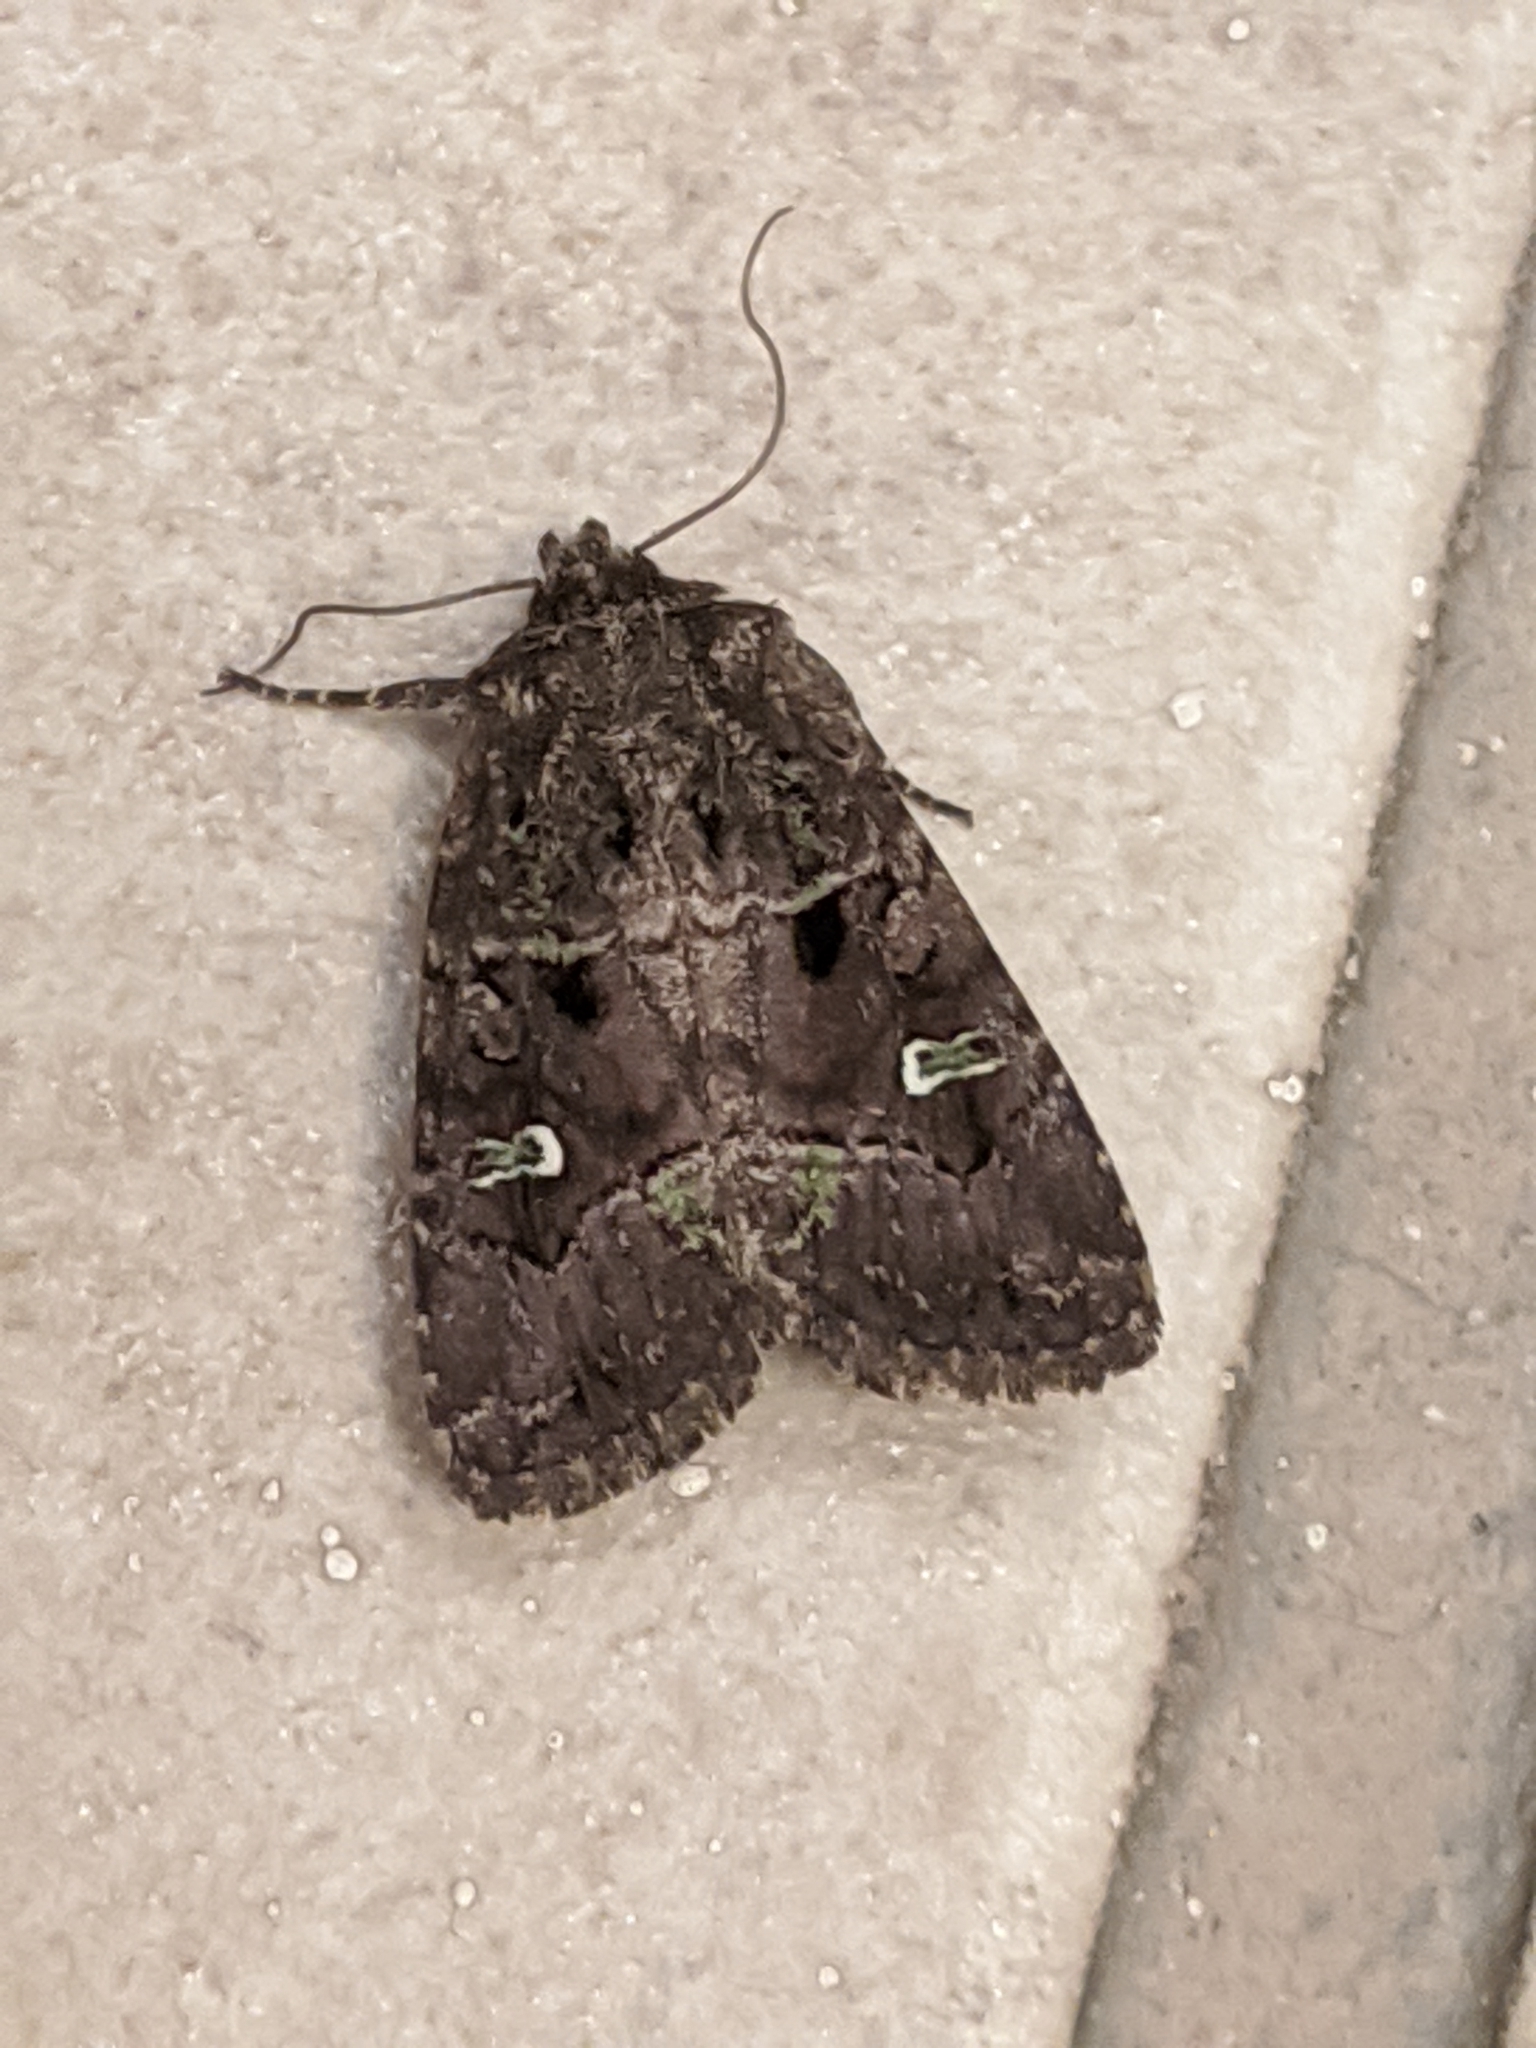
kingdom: Animalia
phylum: Arthropoda
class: Insecta
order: Lepidoptera
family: Noctuidae
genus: Lacinipolia
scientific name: Lacinipolia renigera
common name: Kidney-spotted minor
